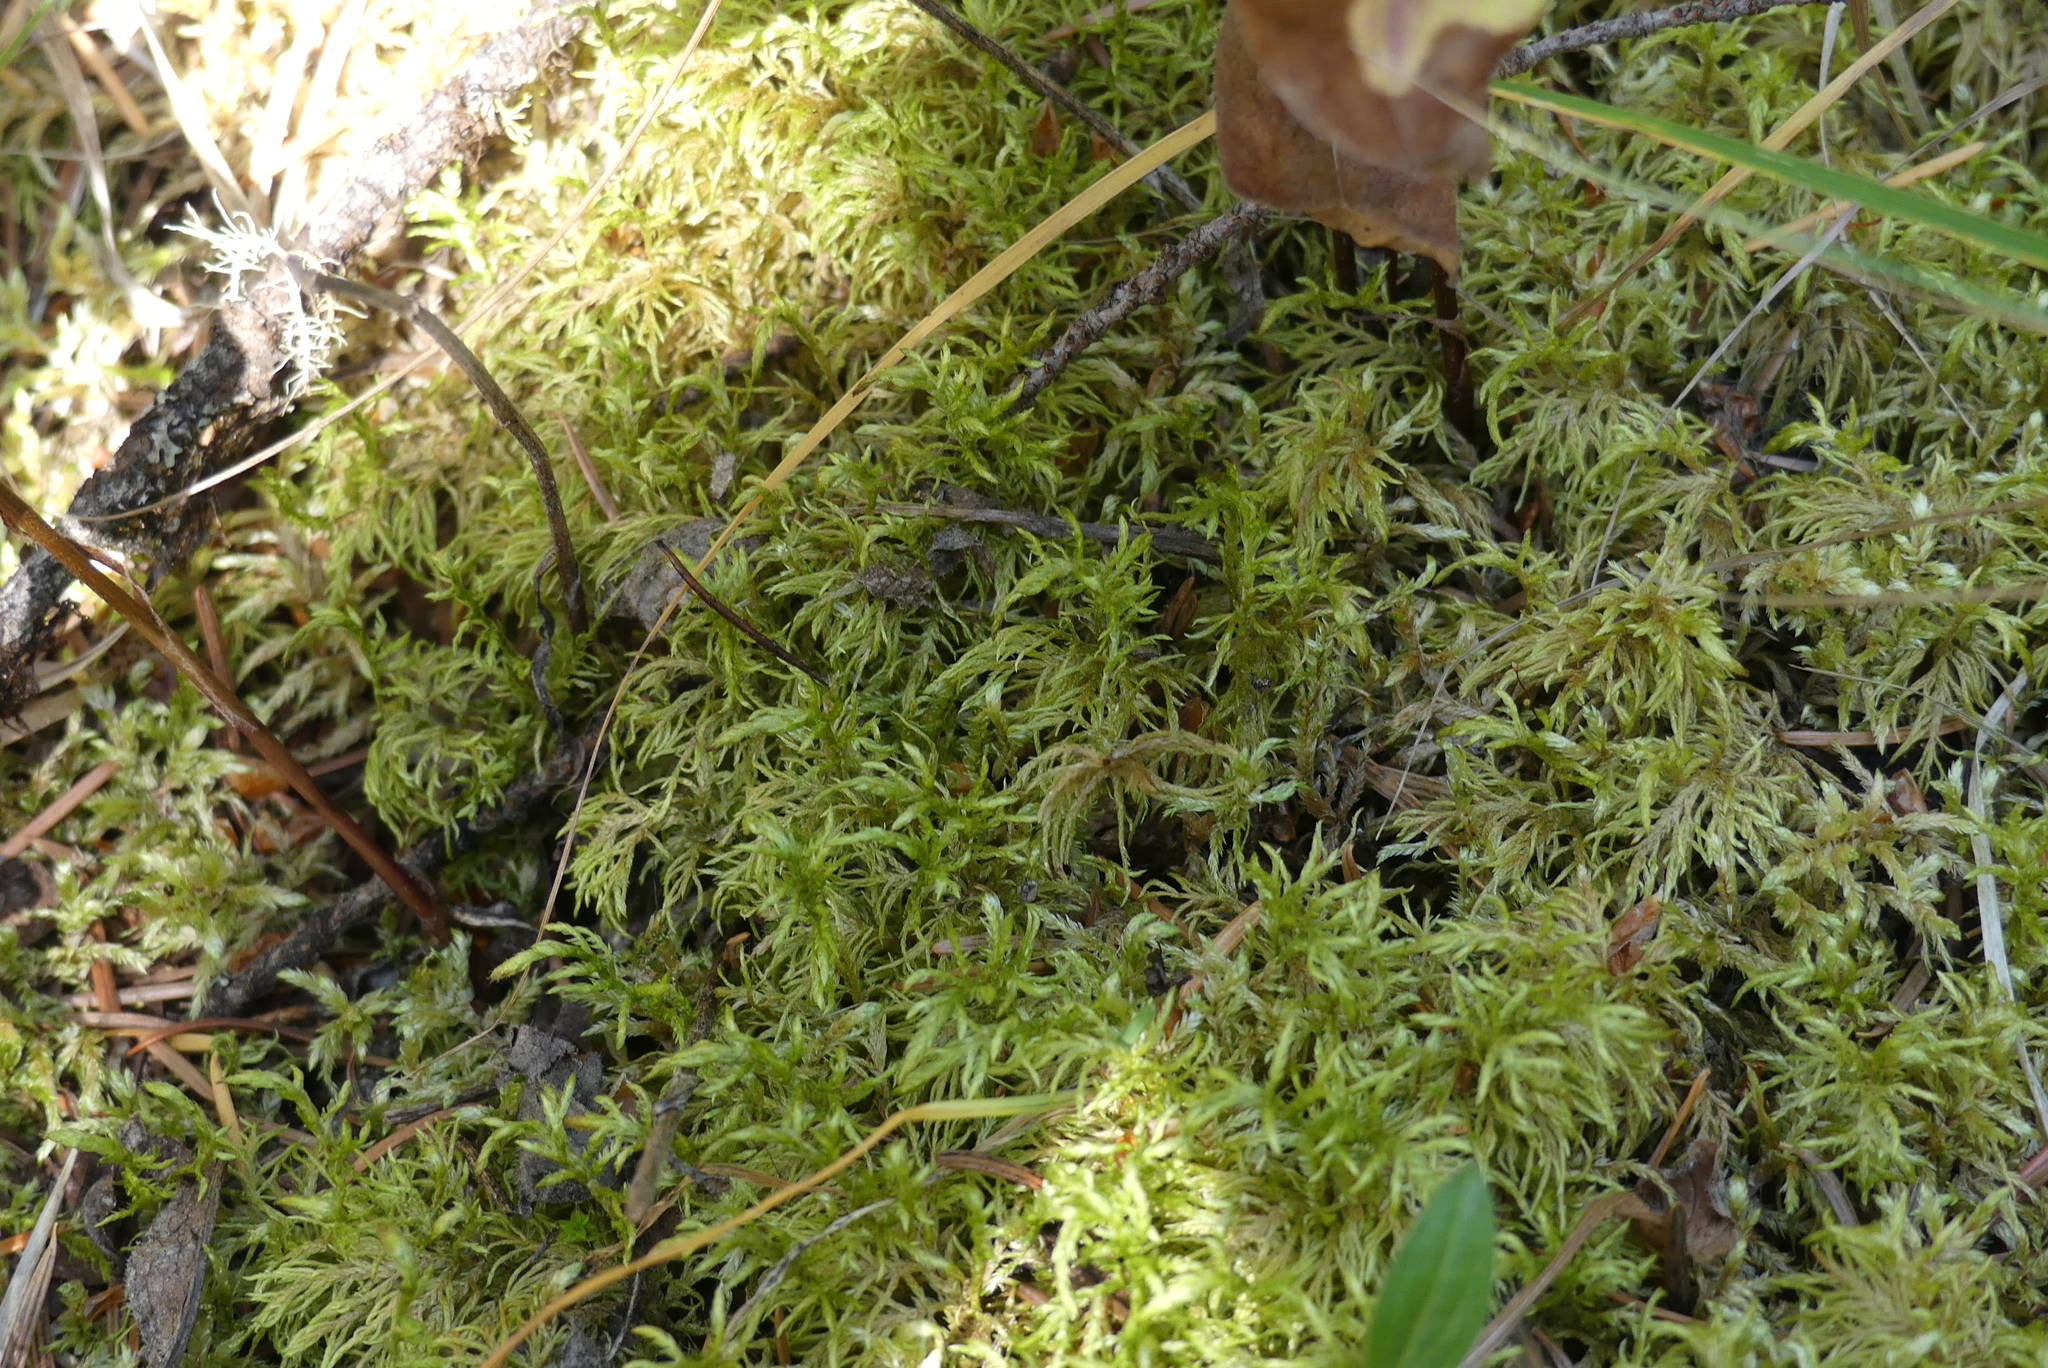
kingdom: Plantae
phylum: Bryophyta
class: Bryopsida
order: Hypnales
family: Hylocomiaceae
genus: Hylocomium
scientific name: Hylocomium splendens
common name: Stairstep moss
